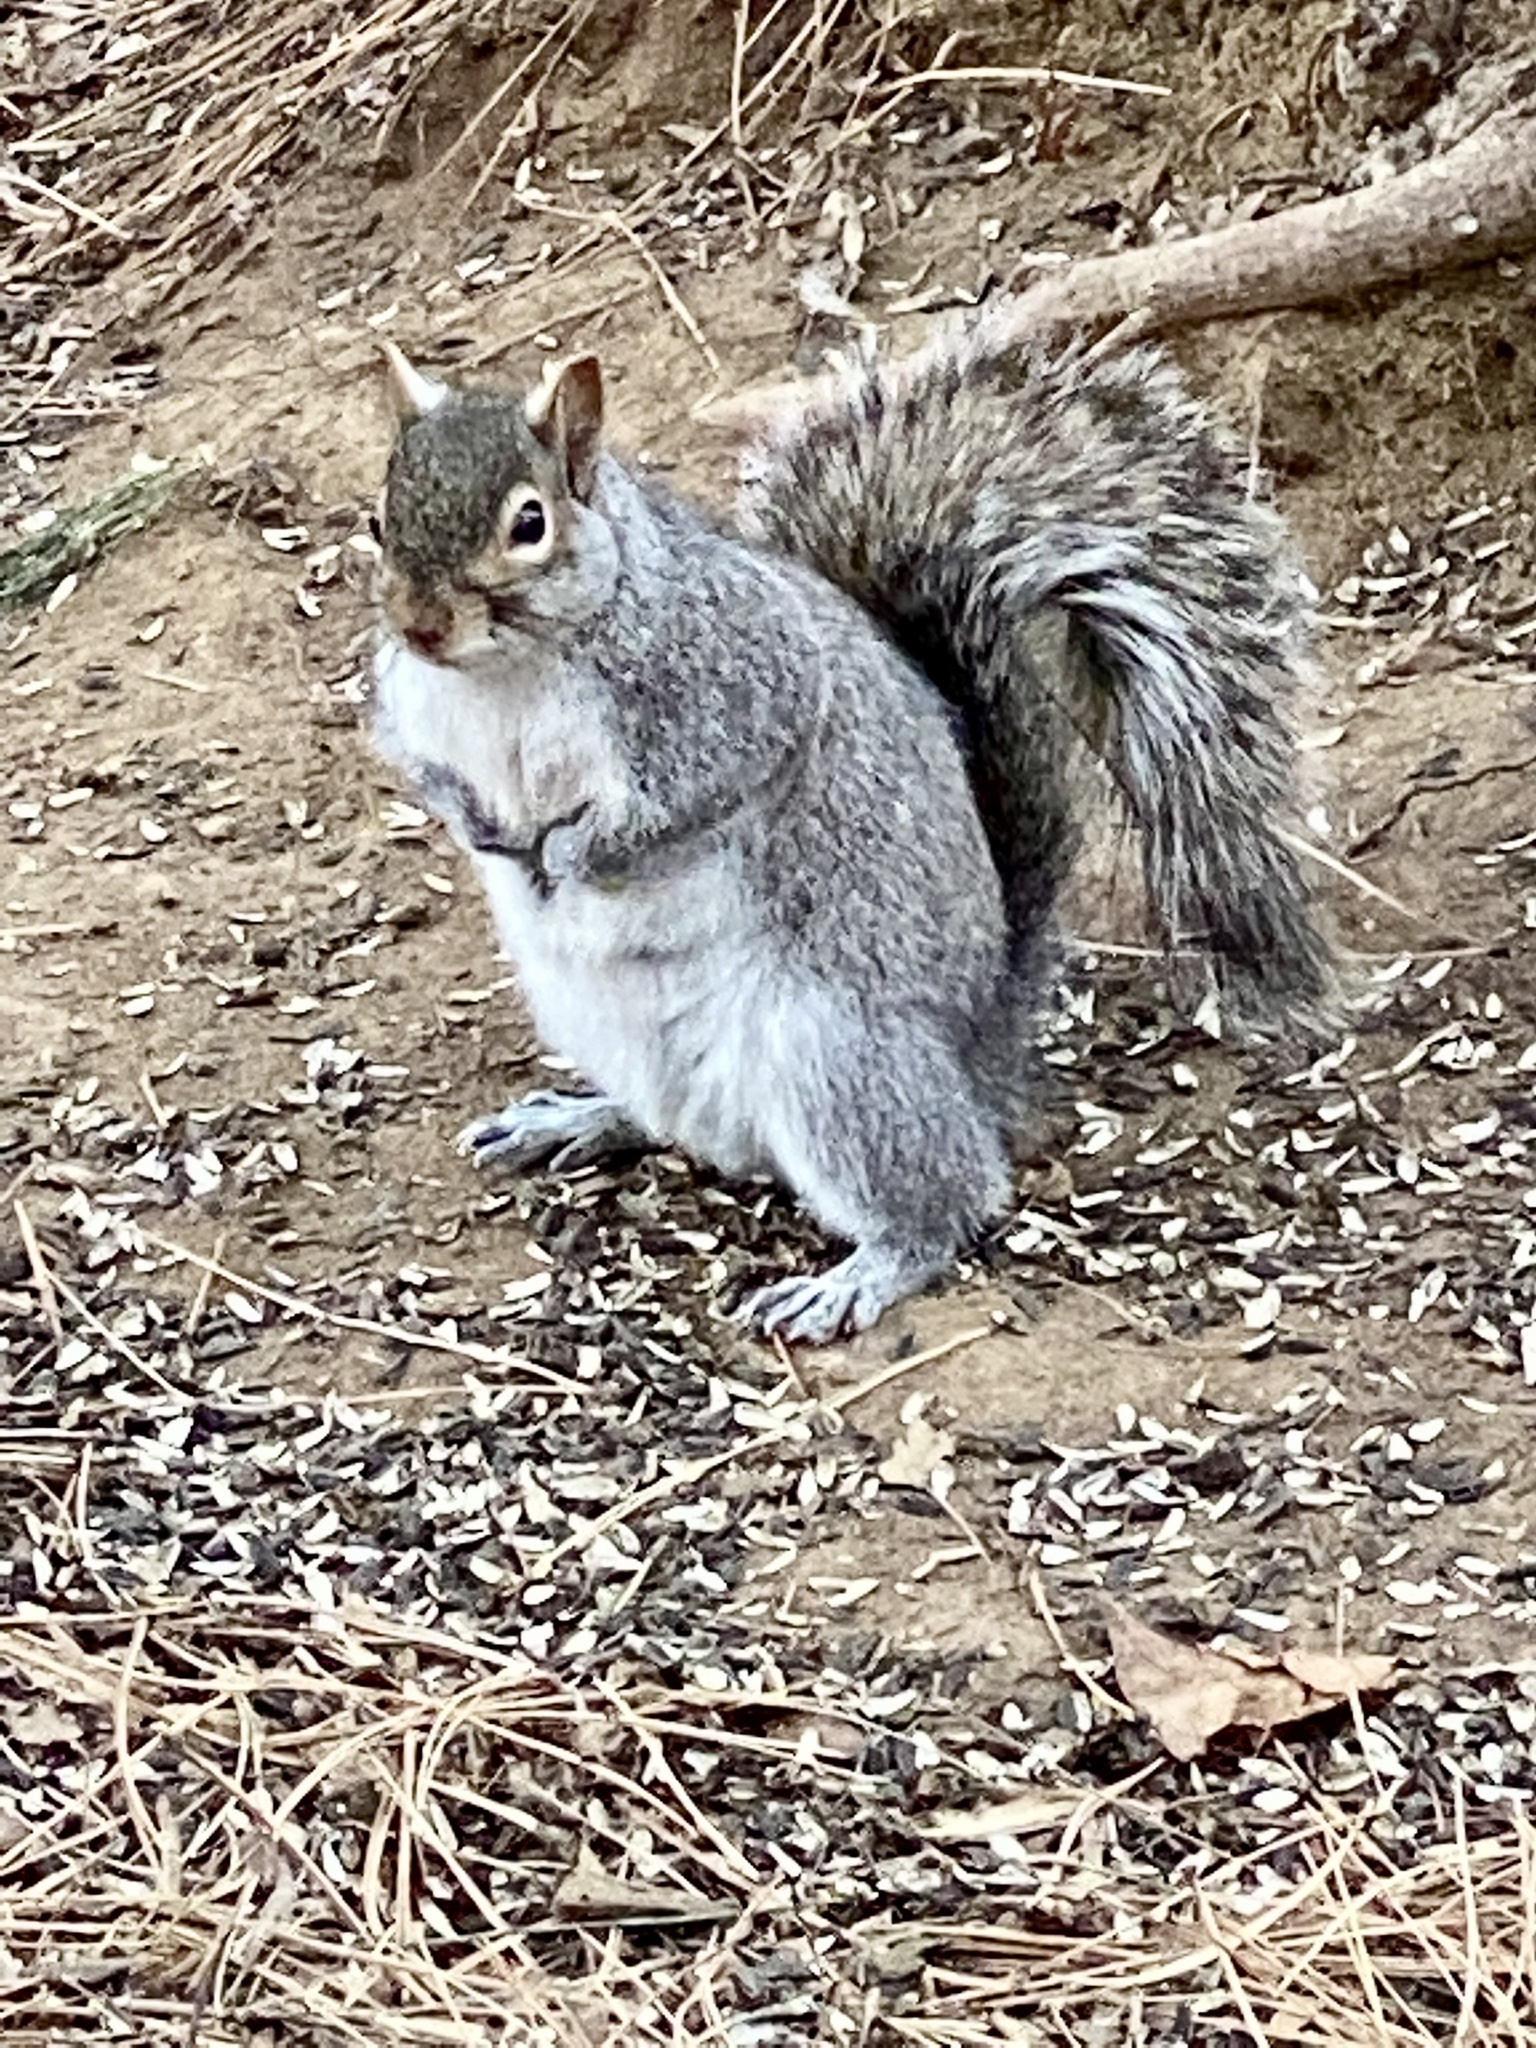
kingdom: Animalia
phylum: Chordata
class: Mammalia
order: Rodentia
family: Sciuridae
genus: Sciurus
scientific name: Sciurus carolinensis
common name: Eastern gray squirrel
